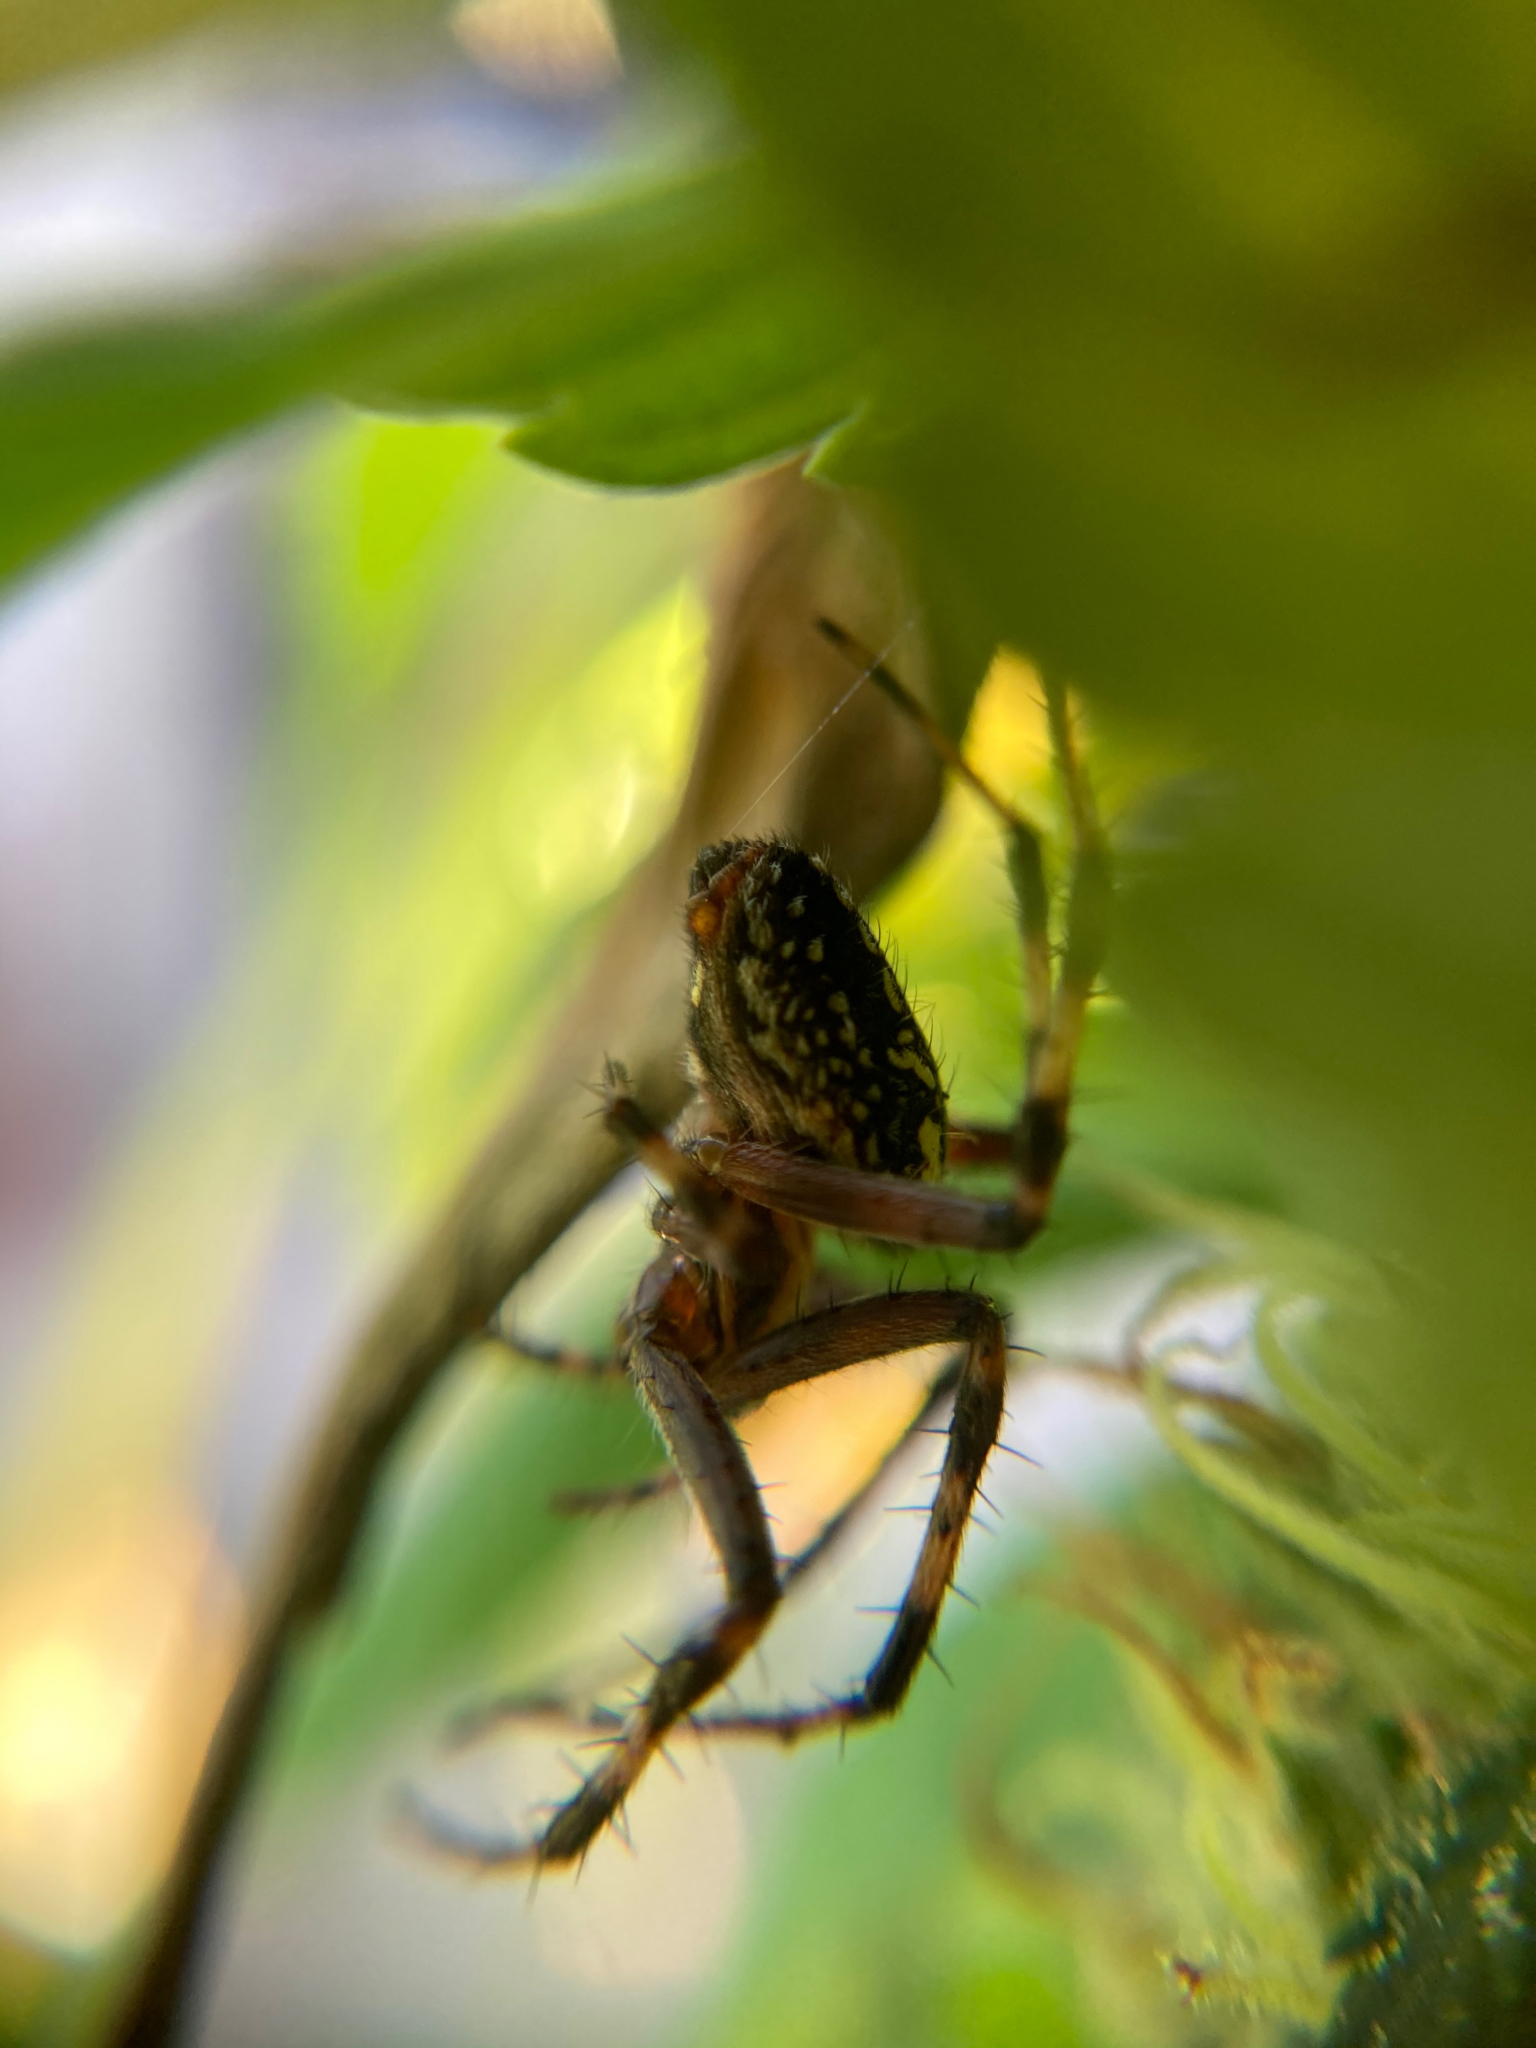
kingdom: Animalia
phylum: Arthropoda
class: Arachnida
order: Araneae
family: Araneidae
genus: Neoscona
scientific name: Neoscona oaxacensis
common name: Orb weavers
